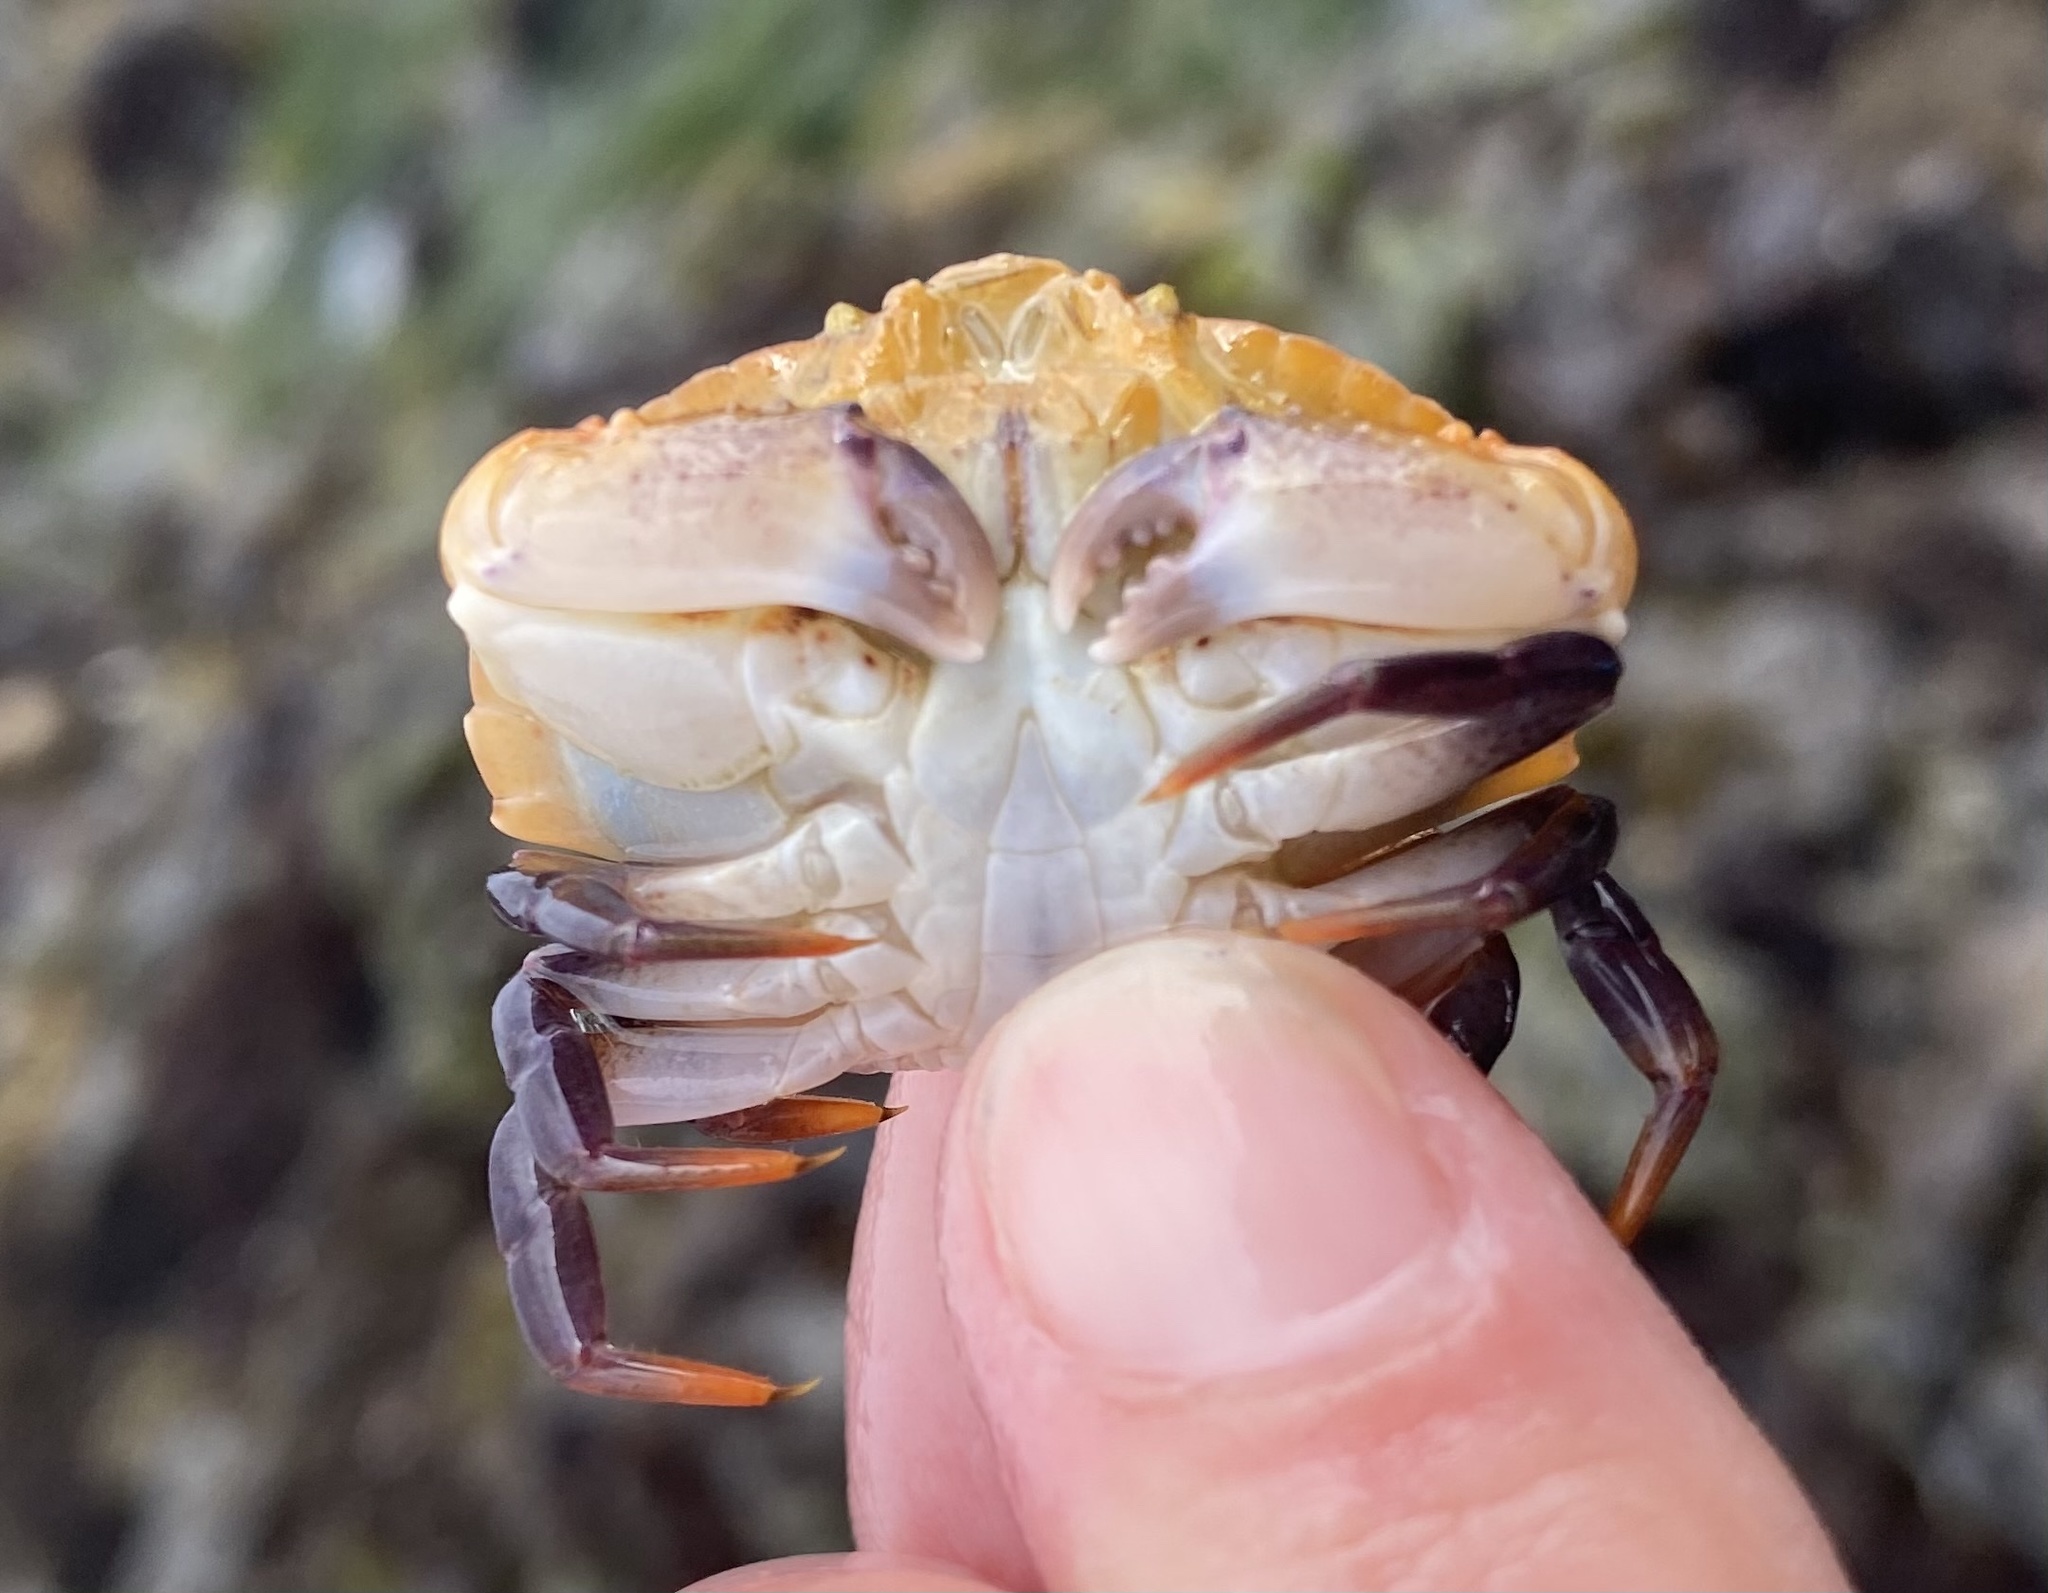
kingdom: Animalia
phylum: Arthropoda
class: Malacostraca
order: Decapoda
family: Cancridae
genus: Cancer
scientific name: Cancer productus
